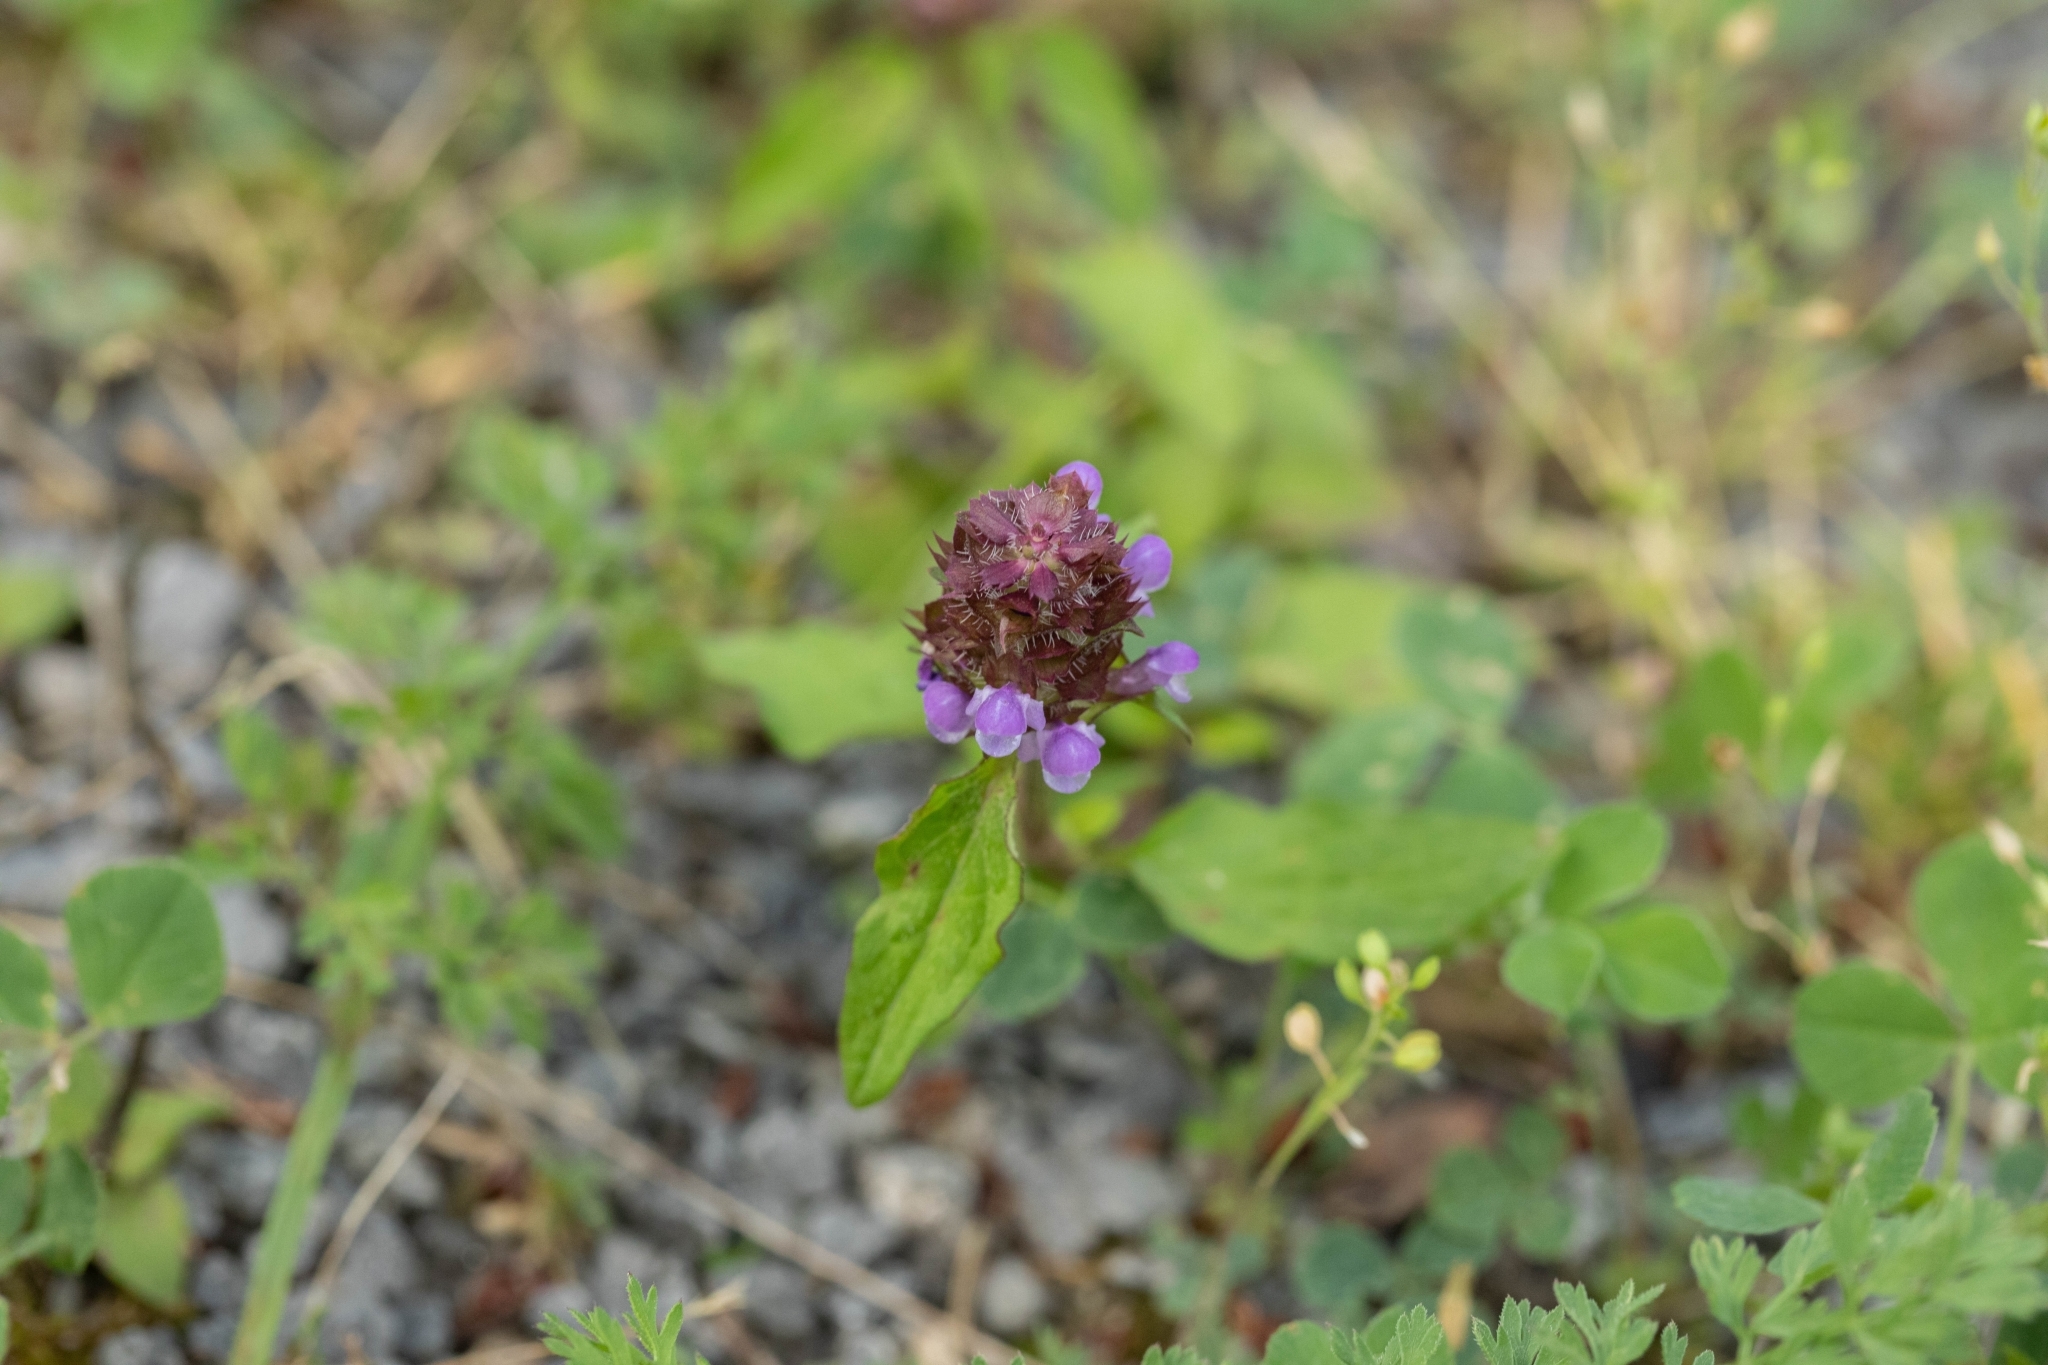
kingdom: Plantae
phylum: Tracheophyta
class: Magnoliopsida
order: Lamiales
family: Lamiaceae
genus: Prunella
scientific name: Prunella vulgaris
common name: Heal-all
